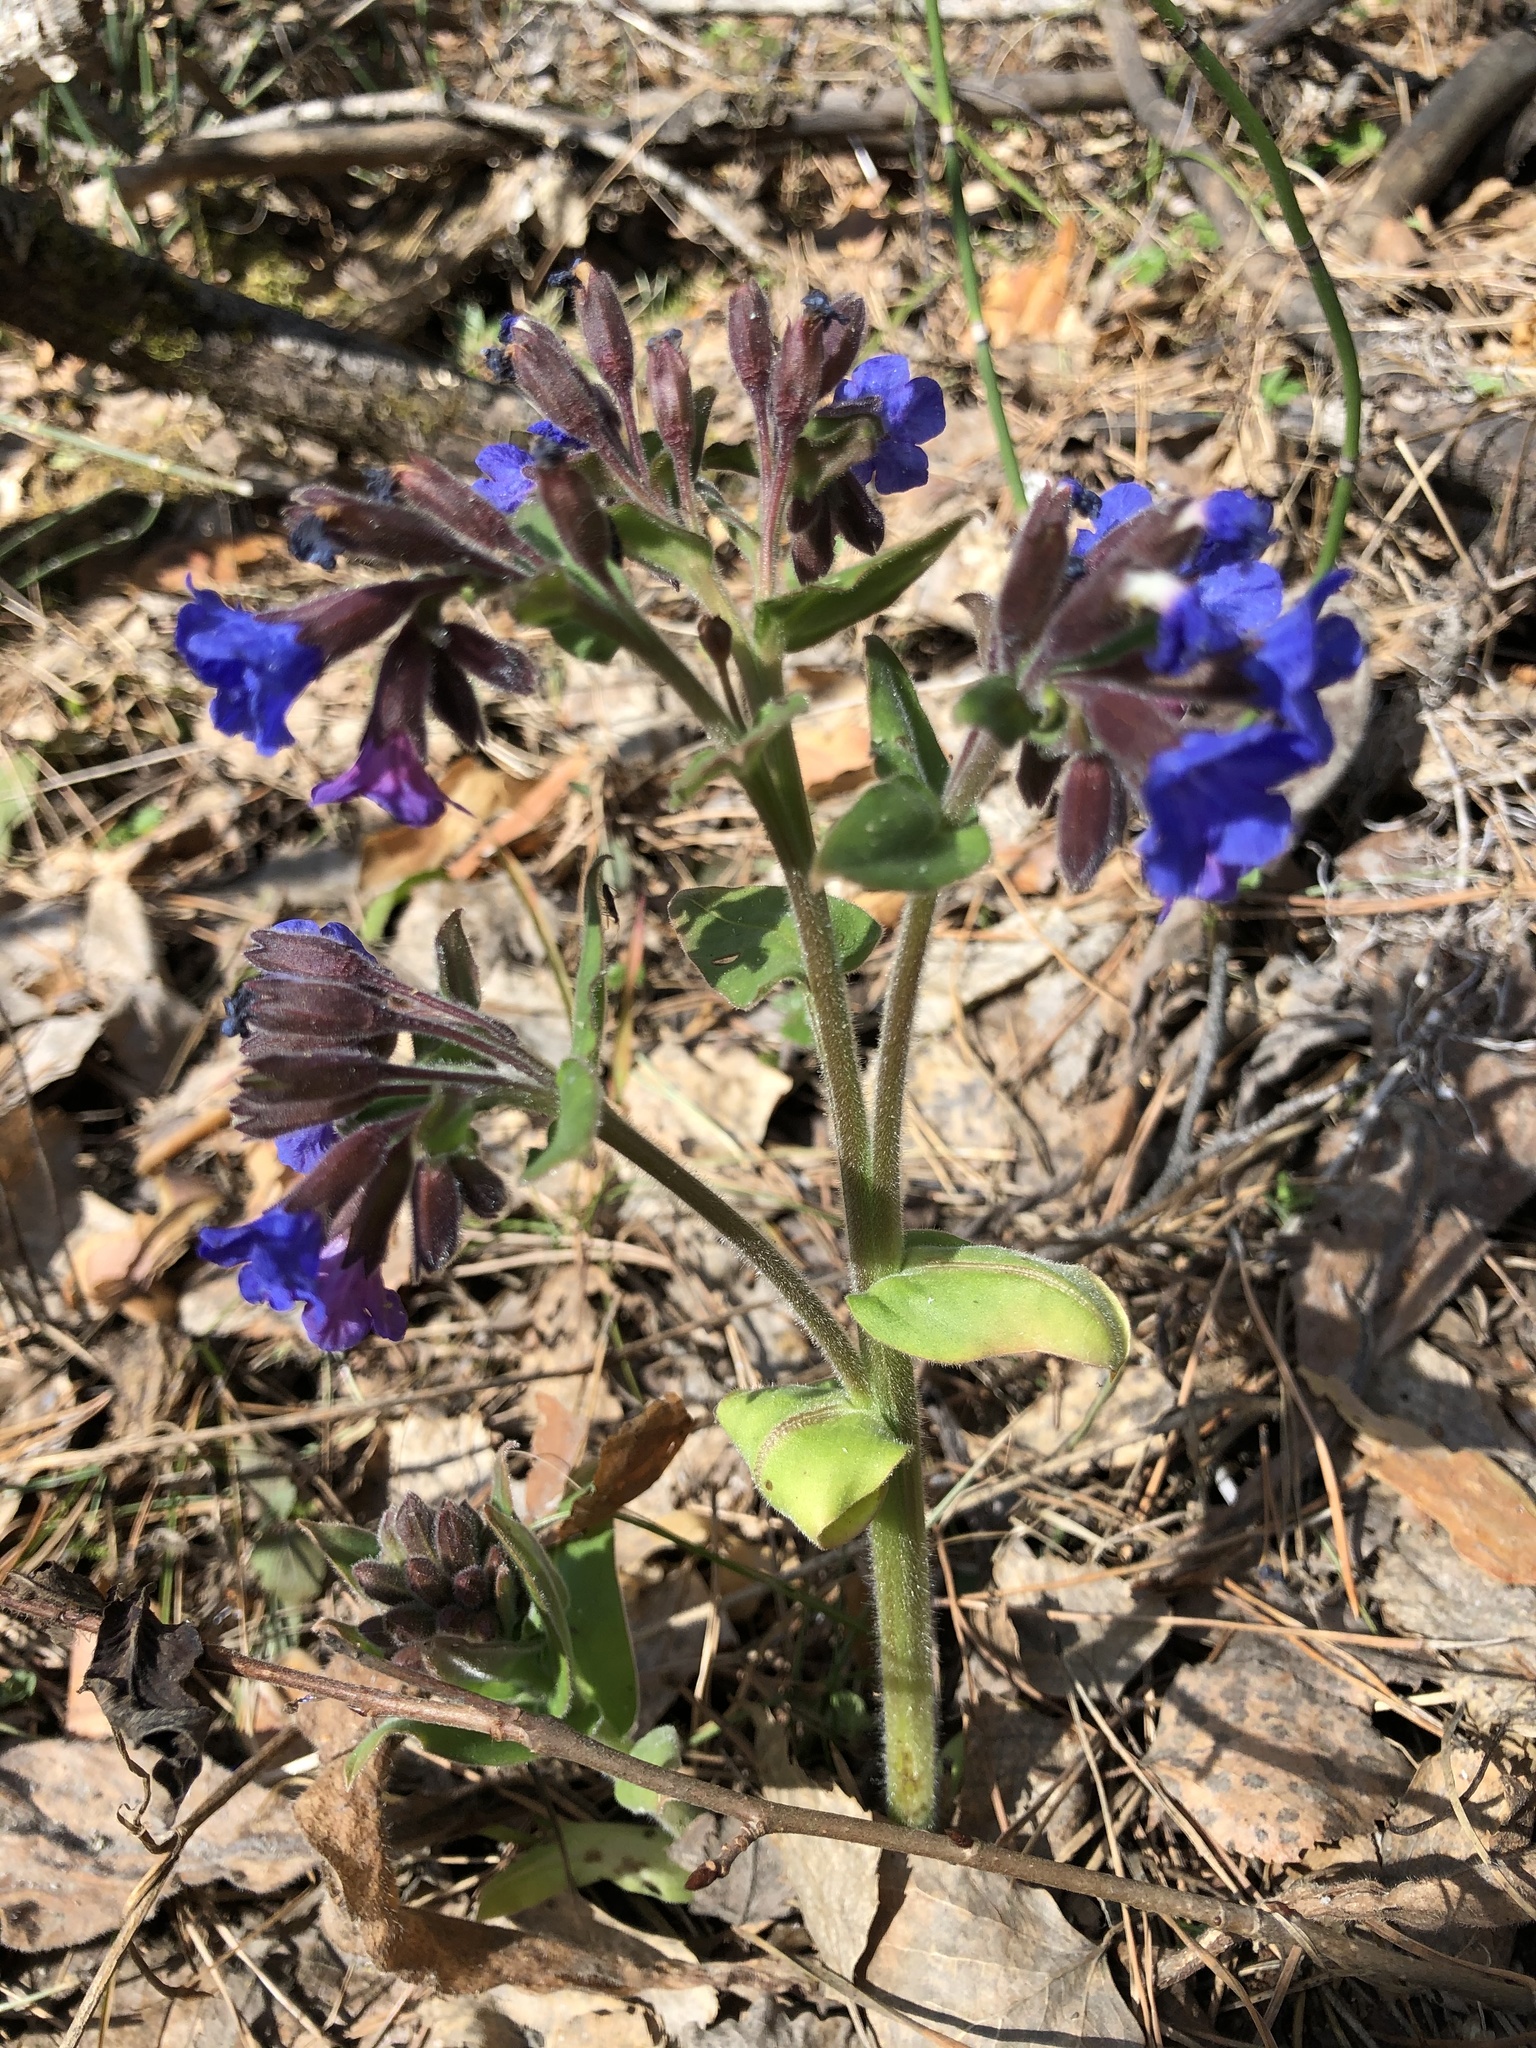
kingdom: Plantae
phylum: Tracheophyta
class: Magnoliopsida
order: Boraginales
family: Boraginaceae
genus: Pulmonaria
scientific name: Pulmonaria mollis
